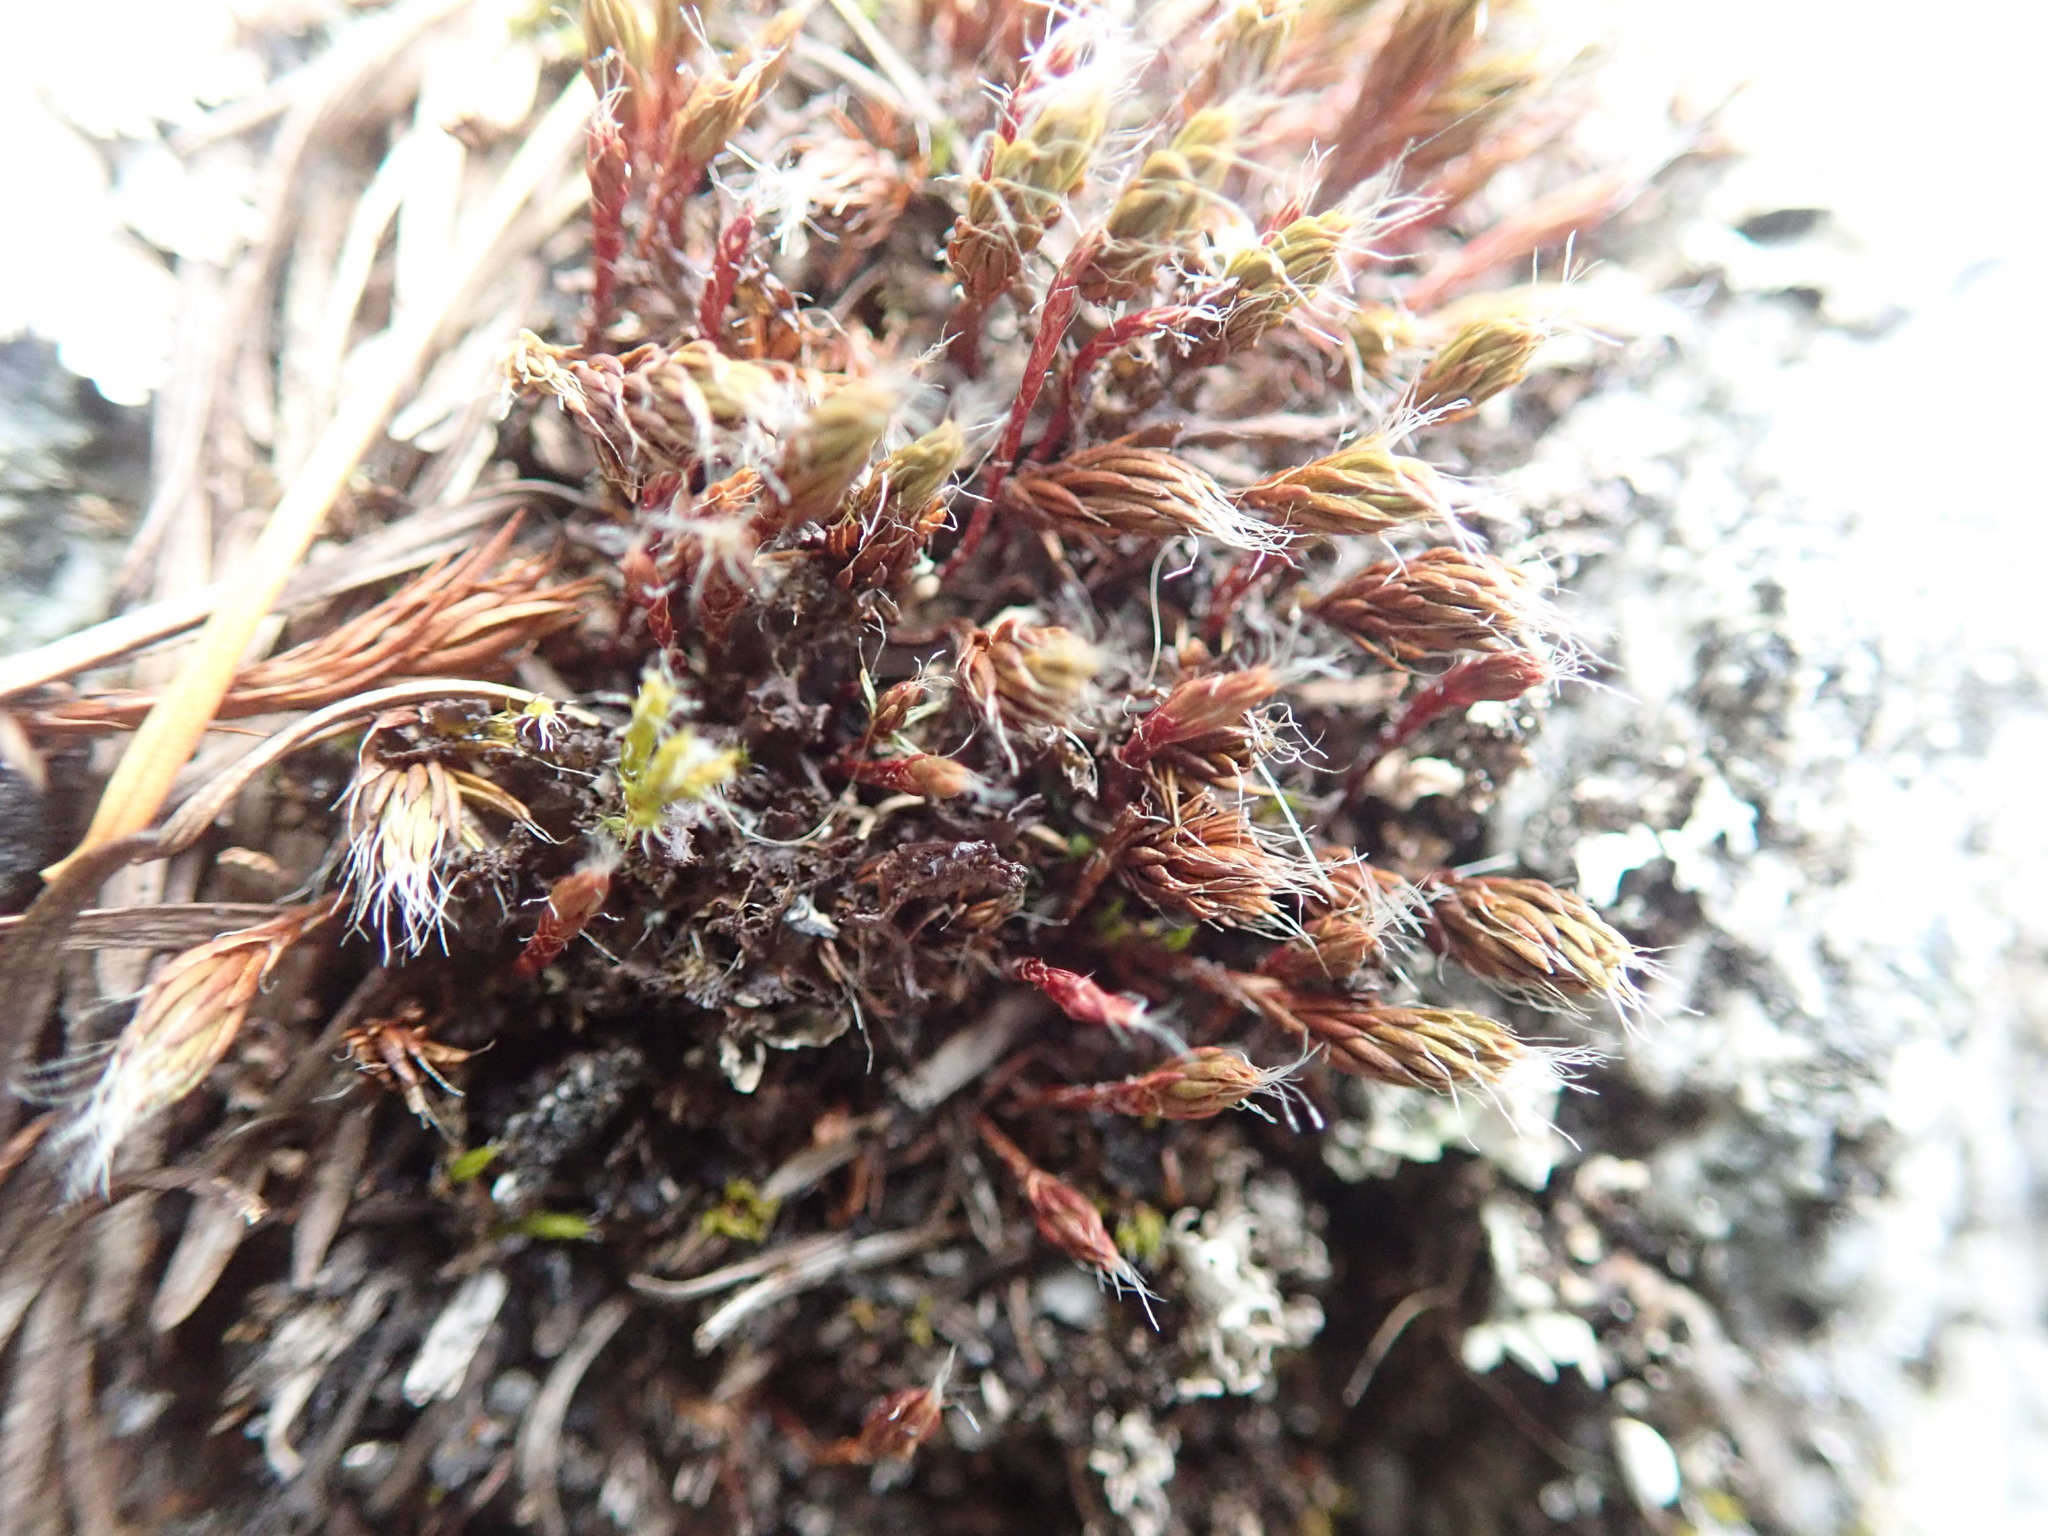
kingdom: Plantae
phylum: Bryophyta
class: Polytrichopsida
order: Polytrichales
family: Polytrichaceae
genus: Polytrichum
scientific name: Polytrichum piliferum
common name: Bristly haircap
